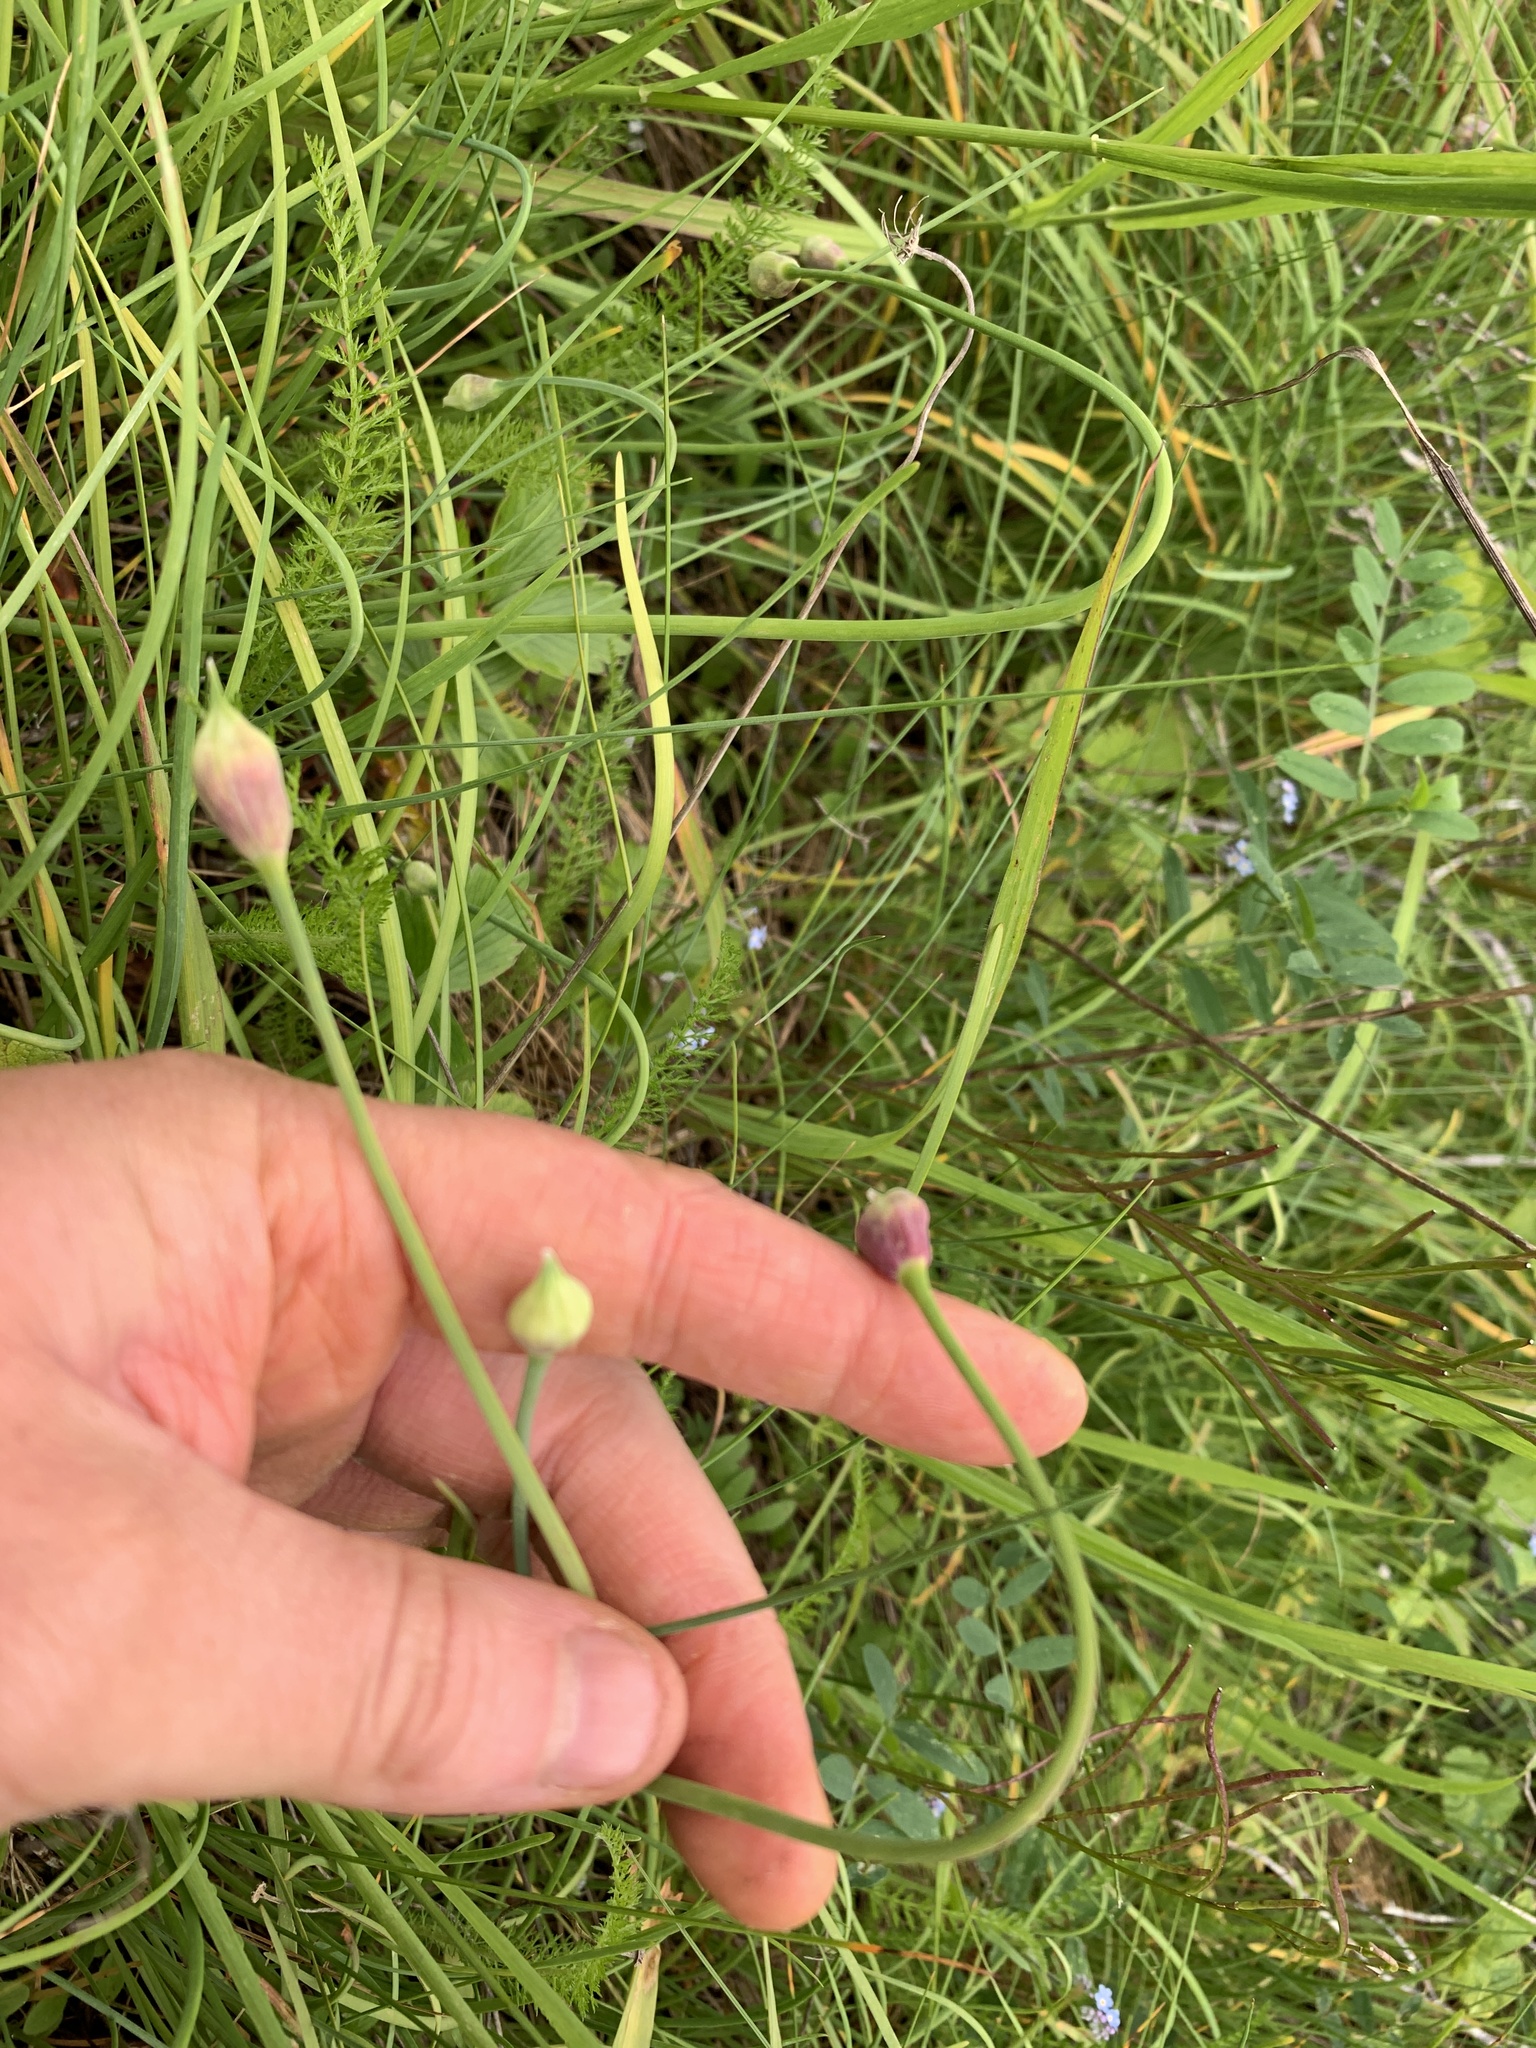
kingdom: Plantae
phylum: Tracheophyta
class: Liliopsida
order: Asparagales
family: Amaryllidaceae
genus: Allium
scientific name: Allium cernuum
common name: Nodding onion
